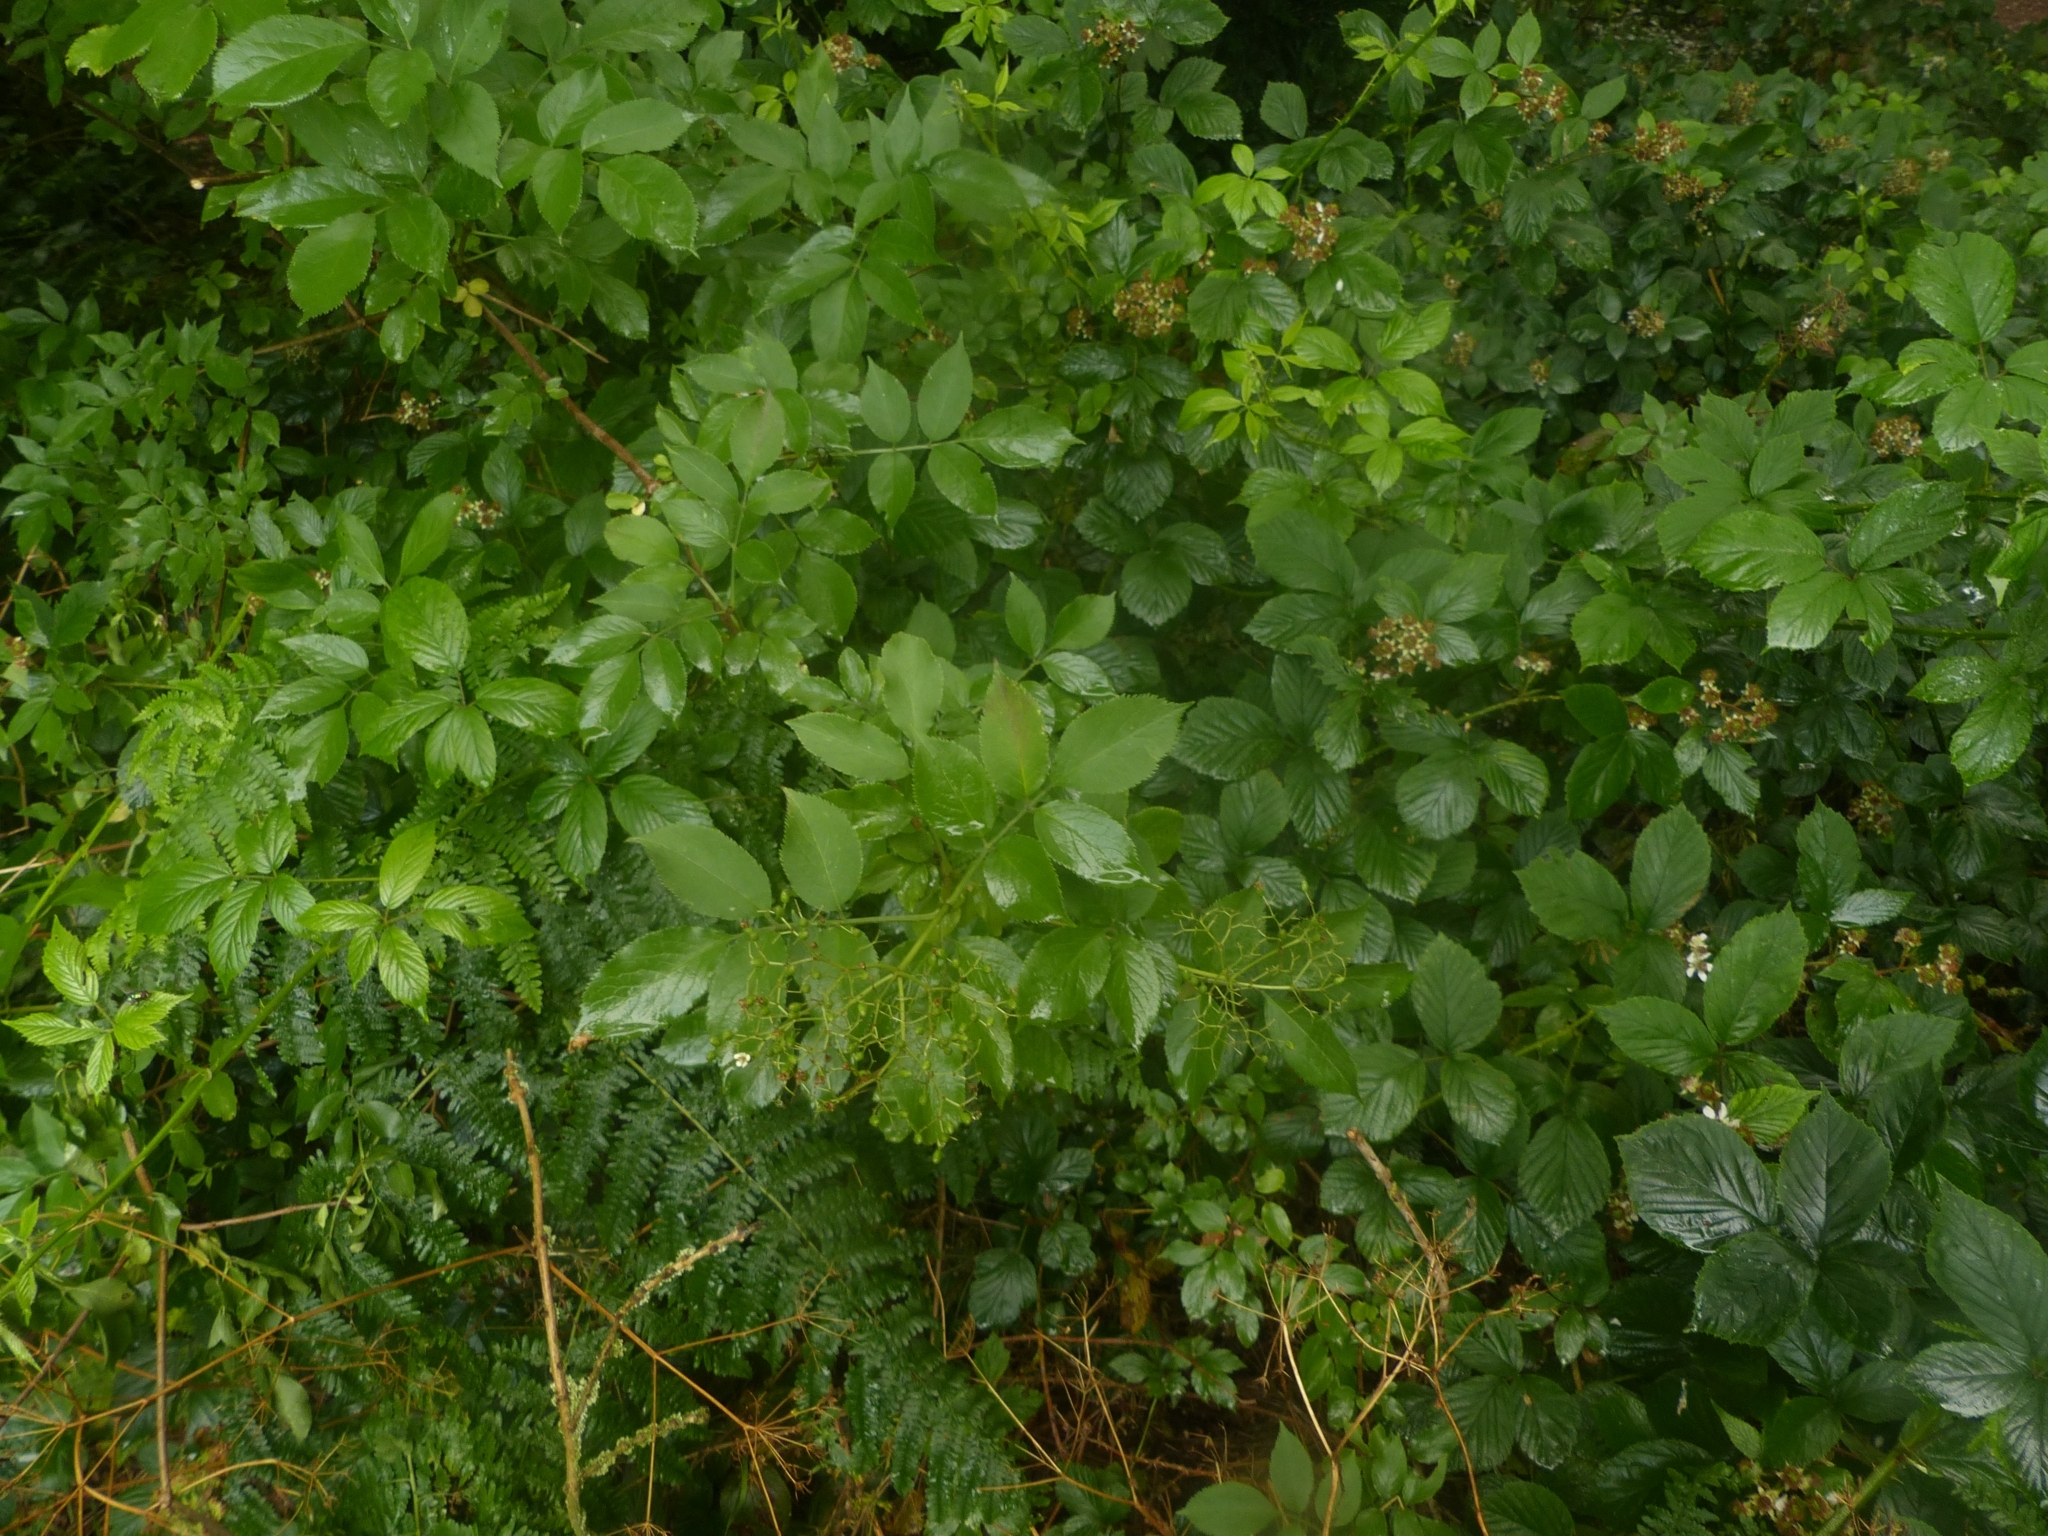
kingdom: Plantae
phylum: Tracheophyta
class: Magnoliopsida
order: Dipsacales
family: Viburnaceae
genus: Sambucus
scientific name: Sambucus nigra
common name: Elder
